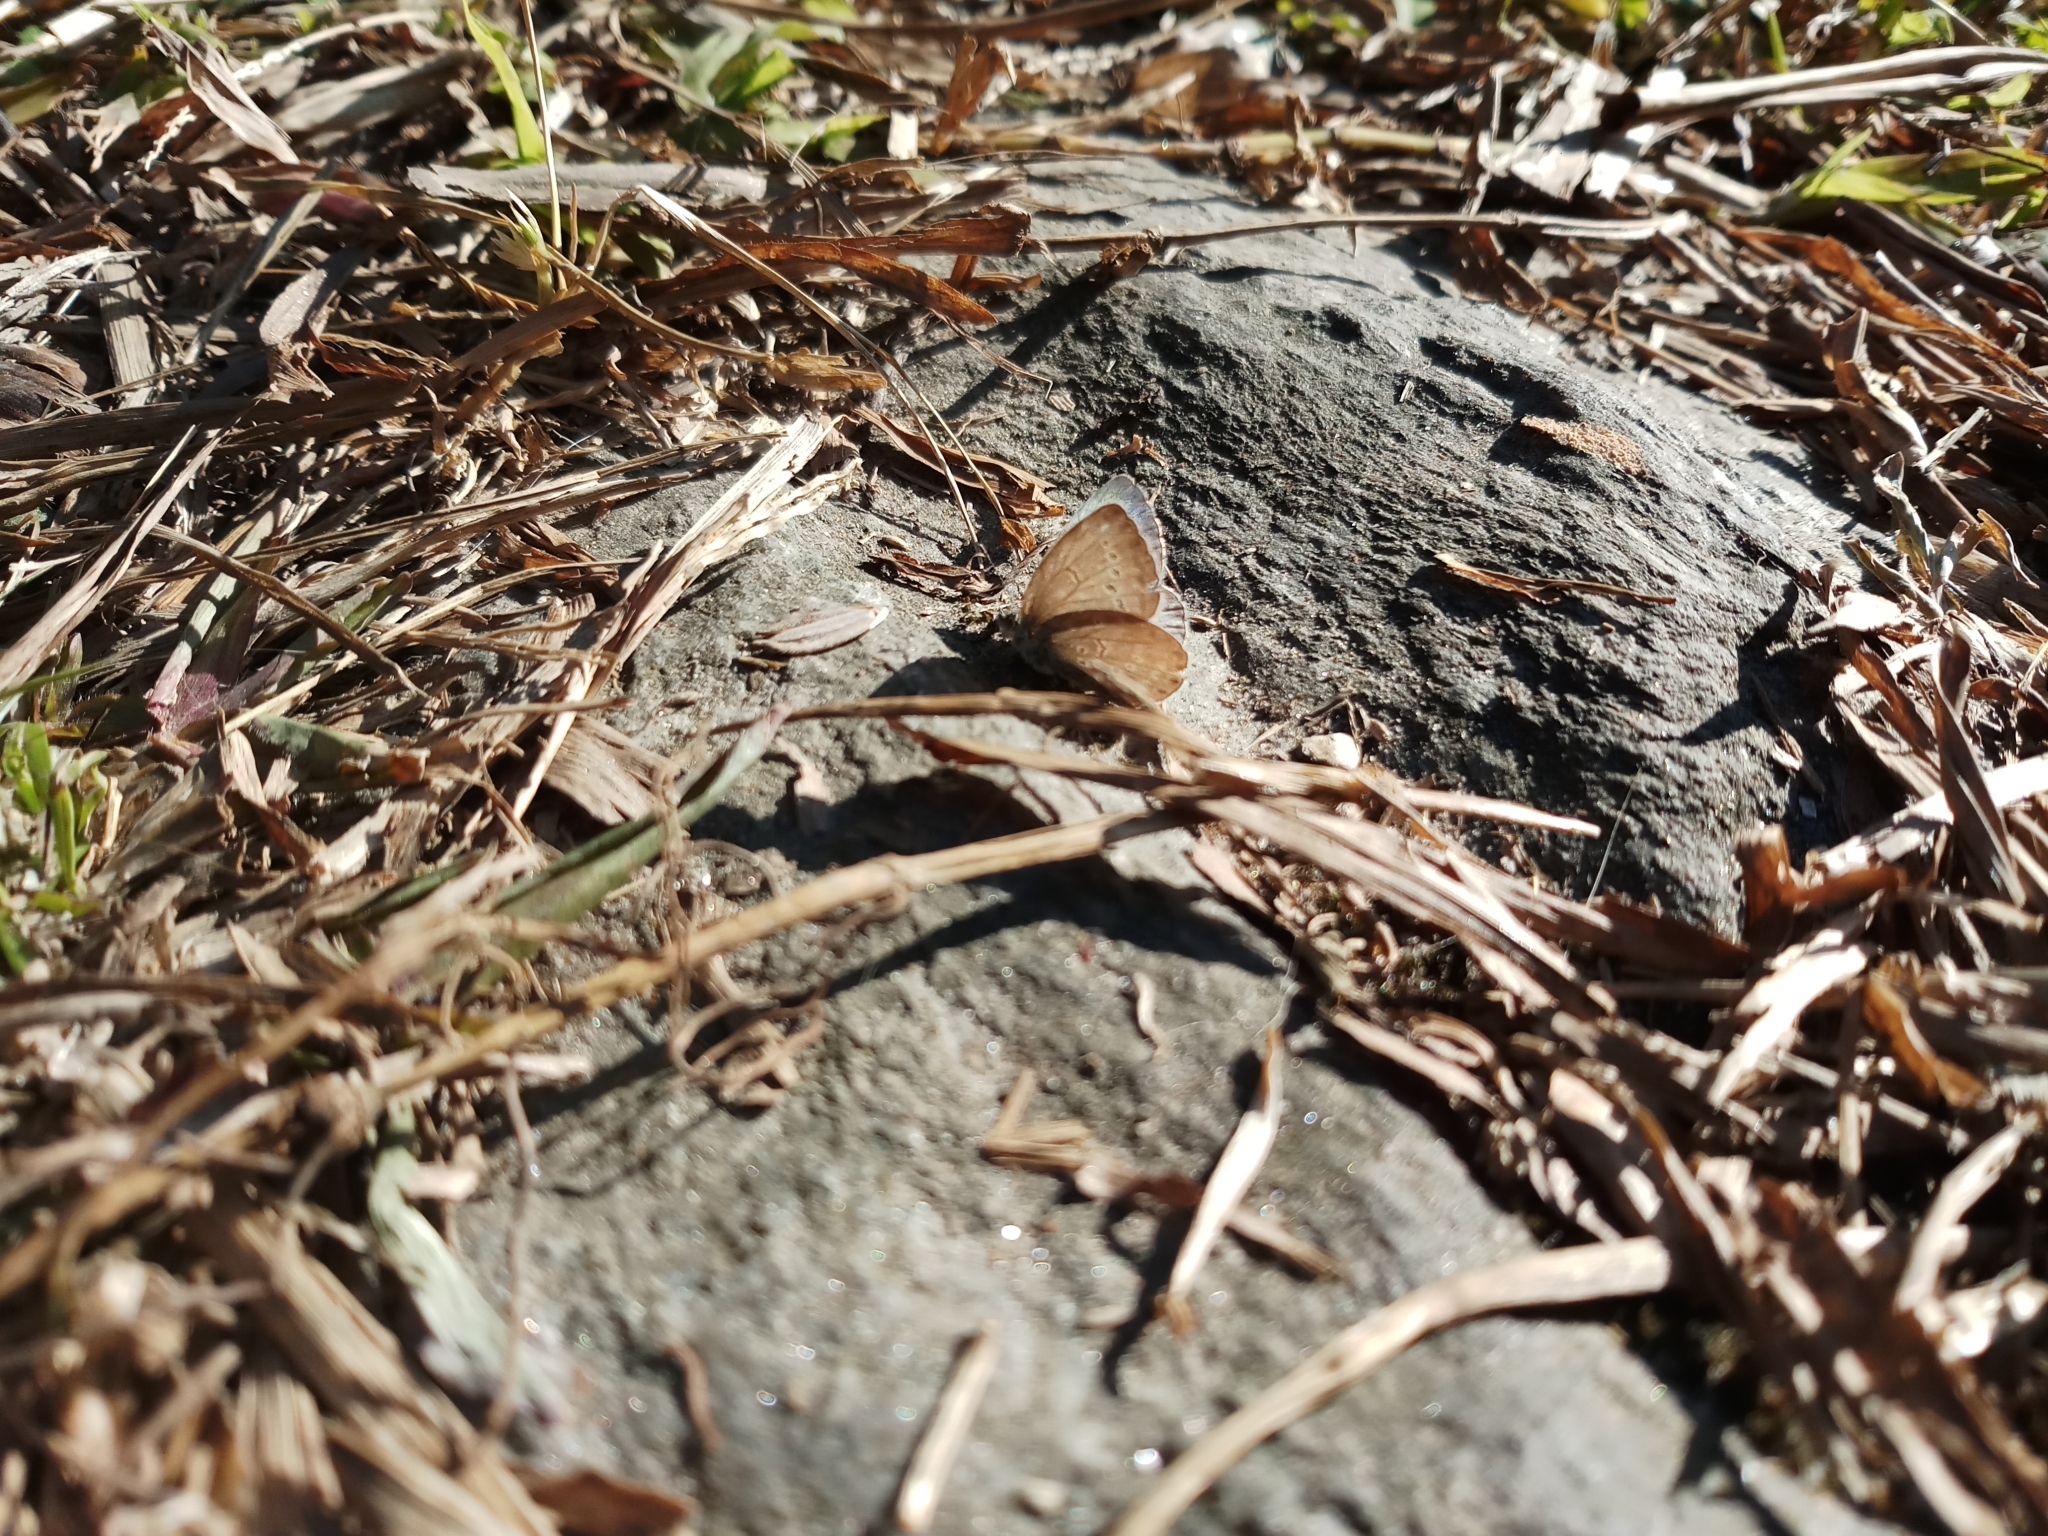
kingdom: Animalia
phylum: Arthropoda
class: Insecta
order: Lepidoptera
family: Lycaenidae
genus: Pseudozizeeria
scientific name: Pseudozizeeria maha
